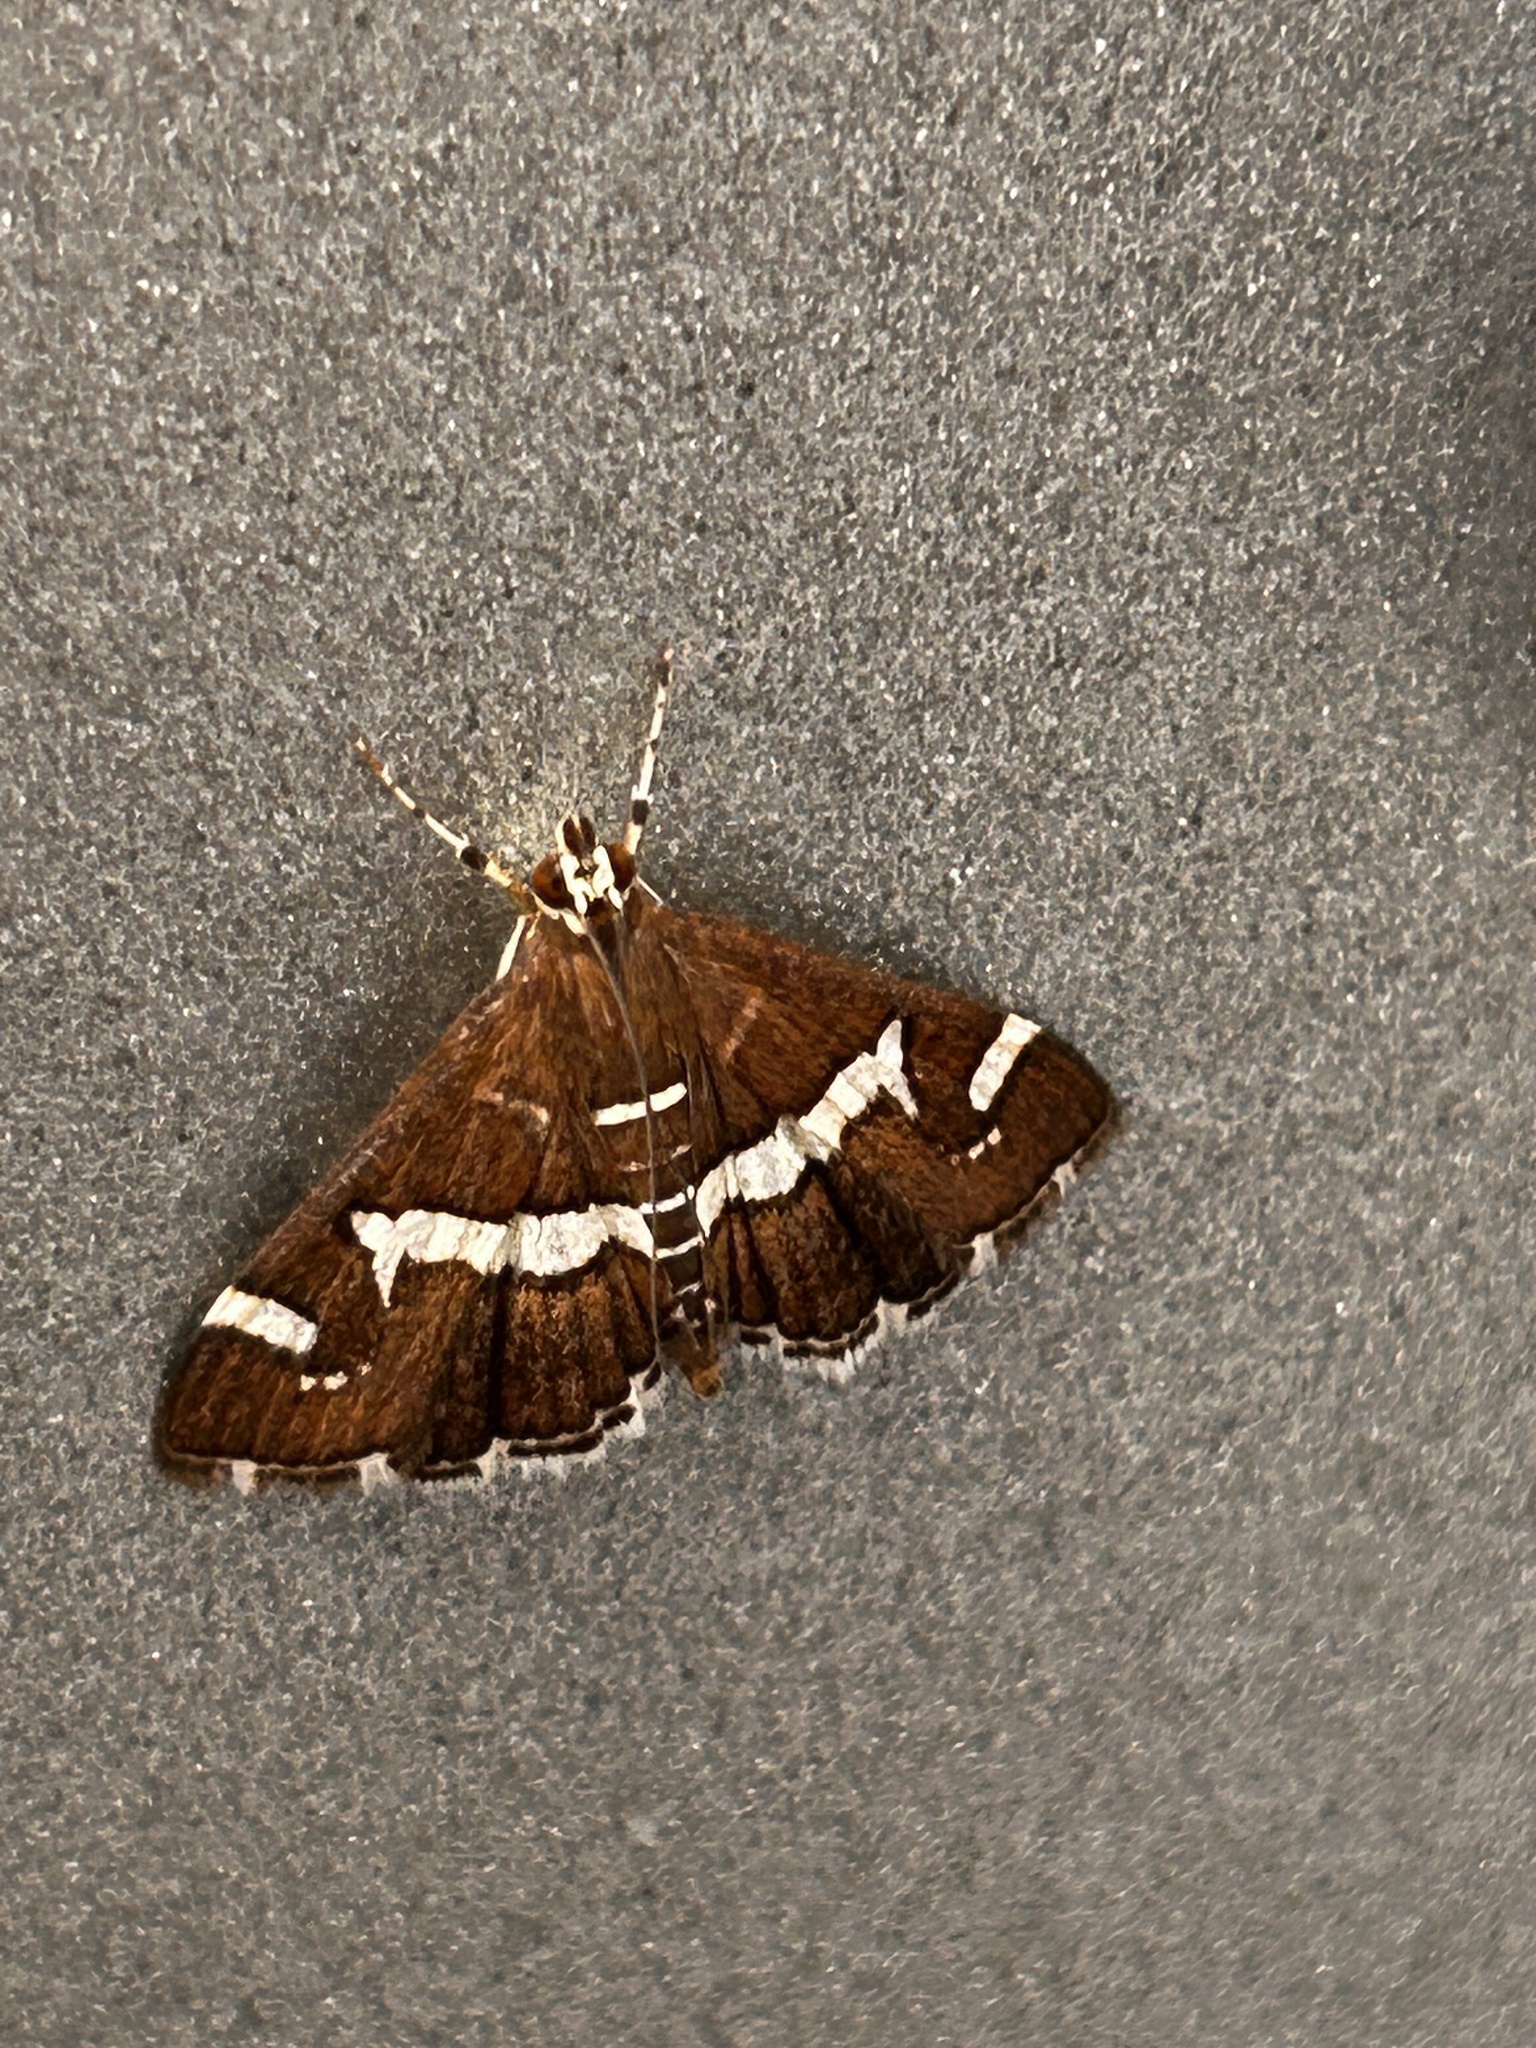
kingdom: Animalia
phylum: Arthropoda
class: Insecta
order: Lepidoptera
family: Crambidae
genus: Spoladea
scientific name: Spoladea recurvalis
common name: Beet webworm moth
